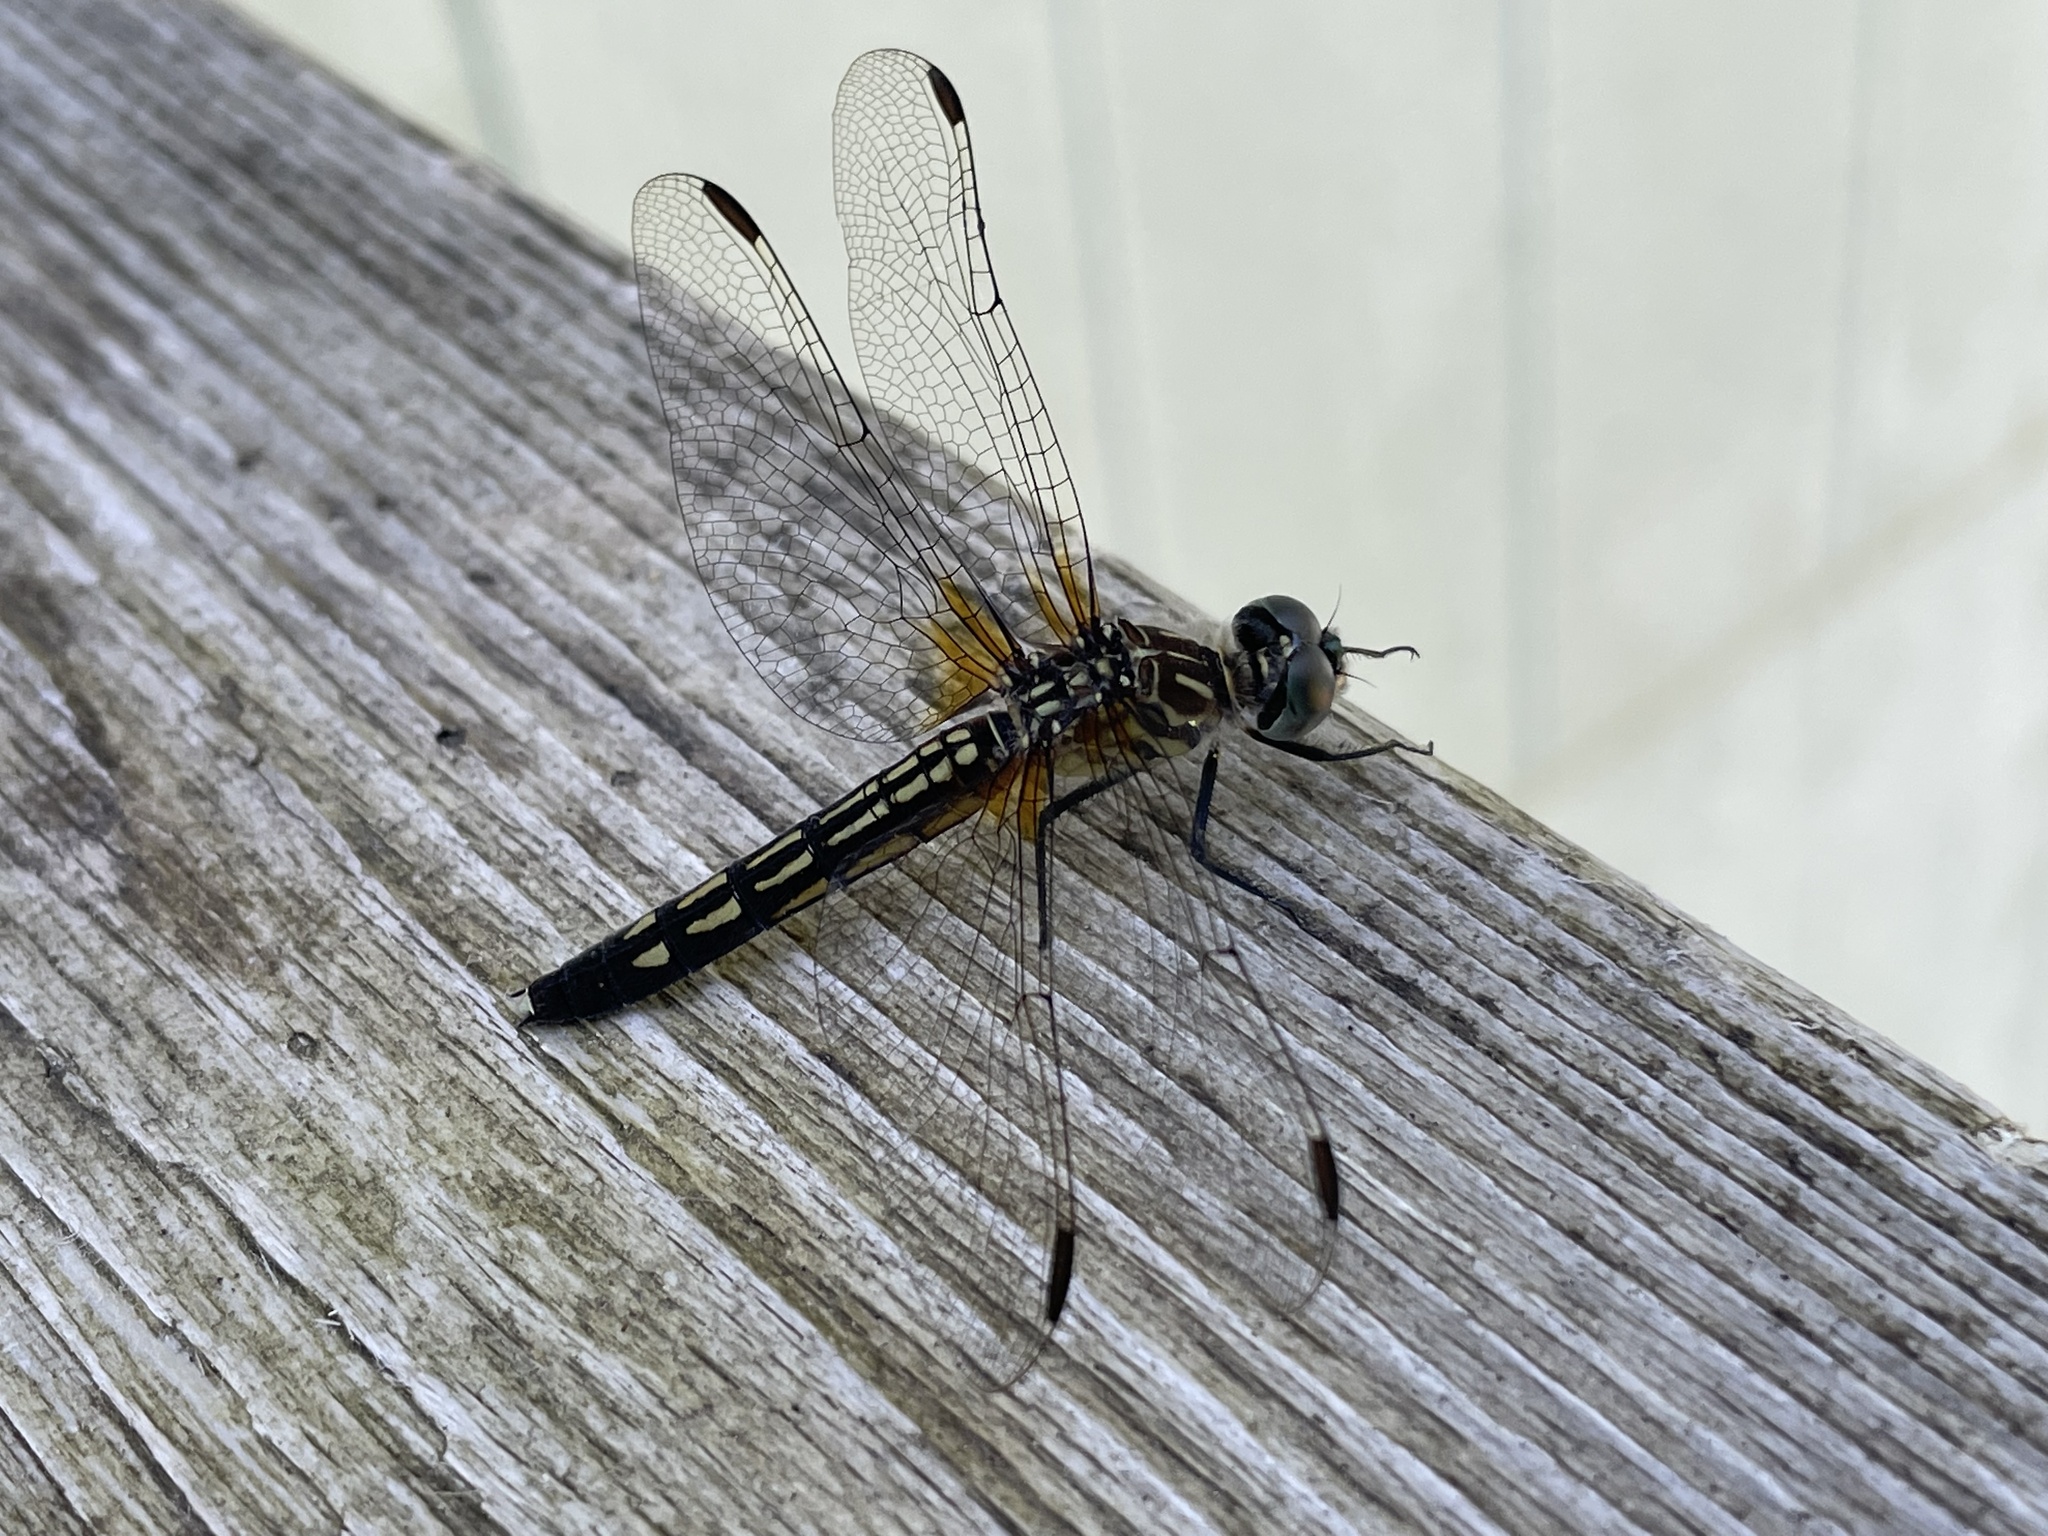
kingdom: Animalia
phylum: Arthropoda
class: Insecta
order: Odonata
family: Libellulidae
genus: Pachydiplax
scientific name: Pachydiplax longipennis
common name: Blue dasher
